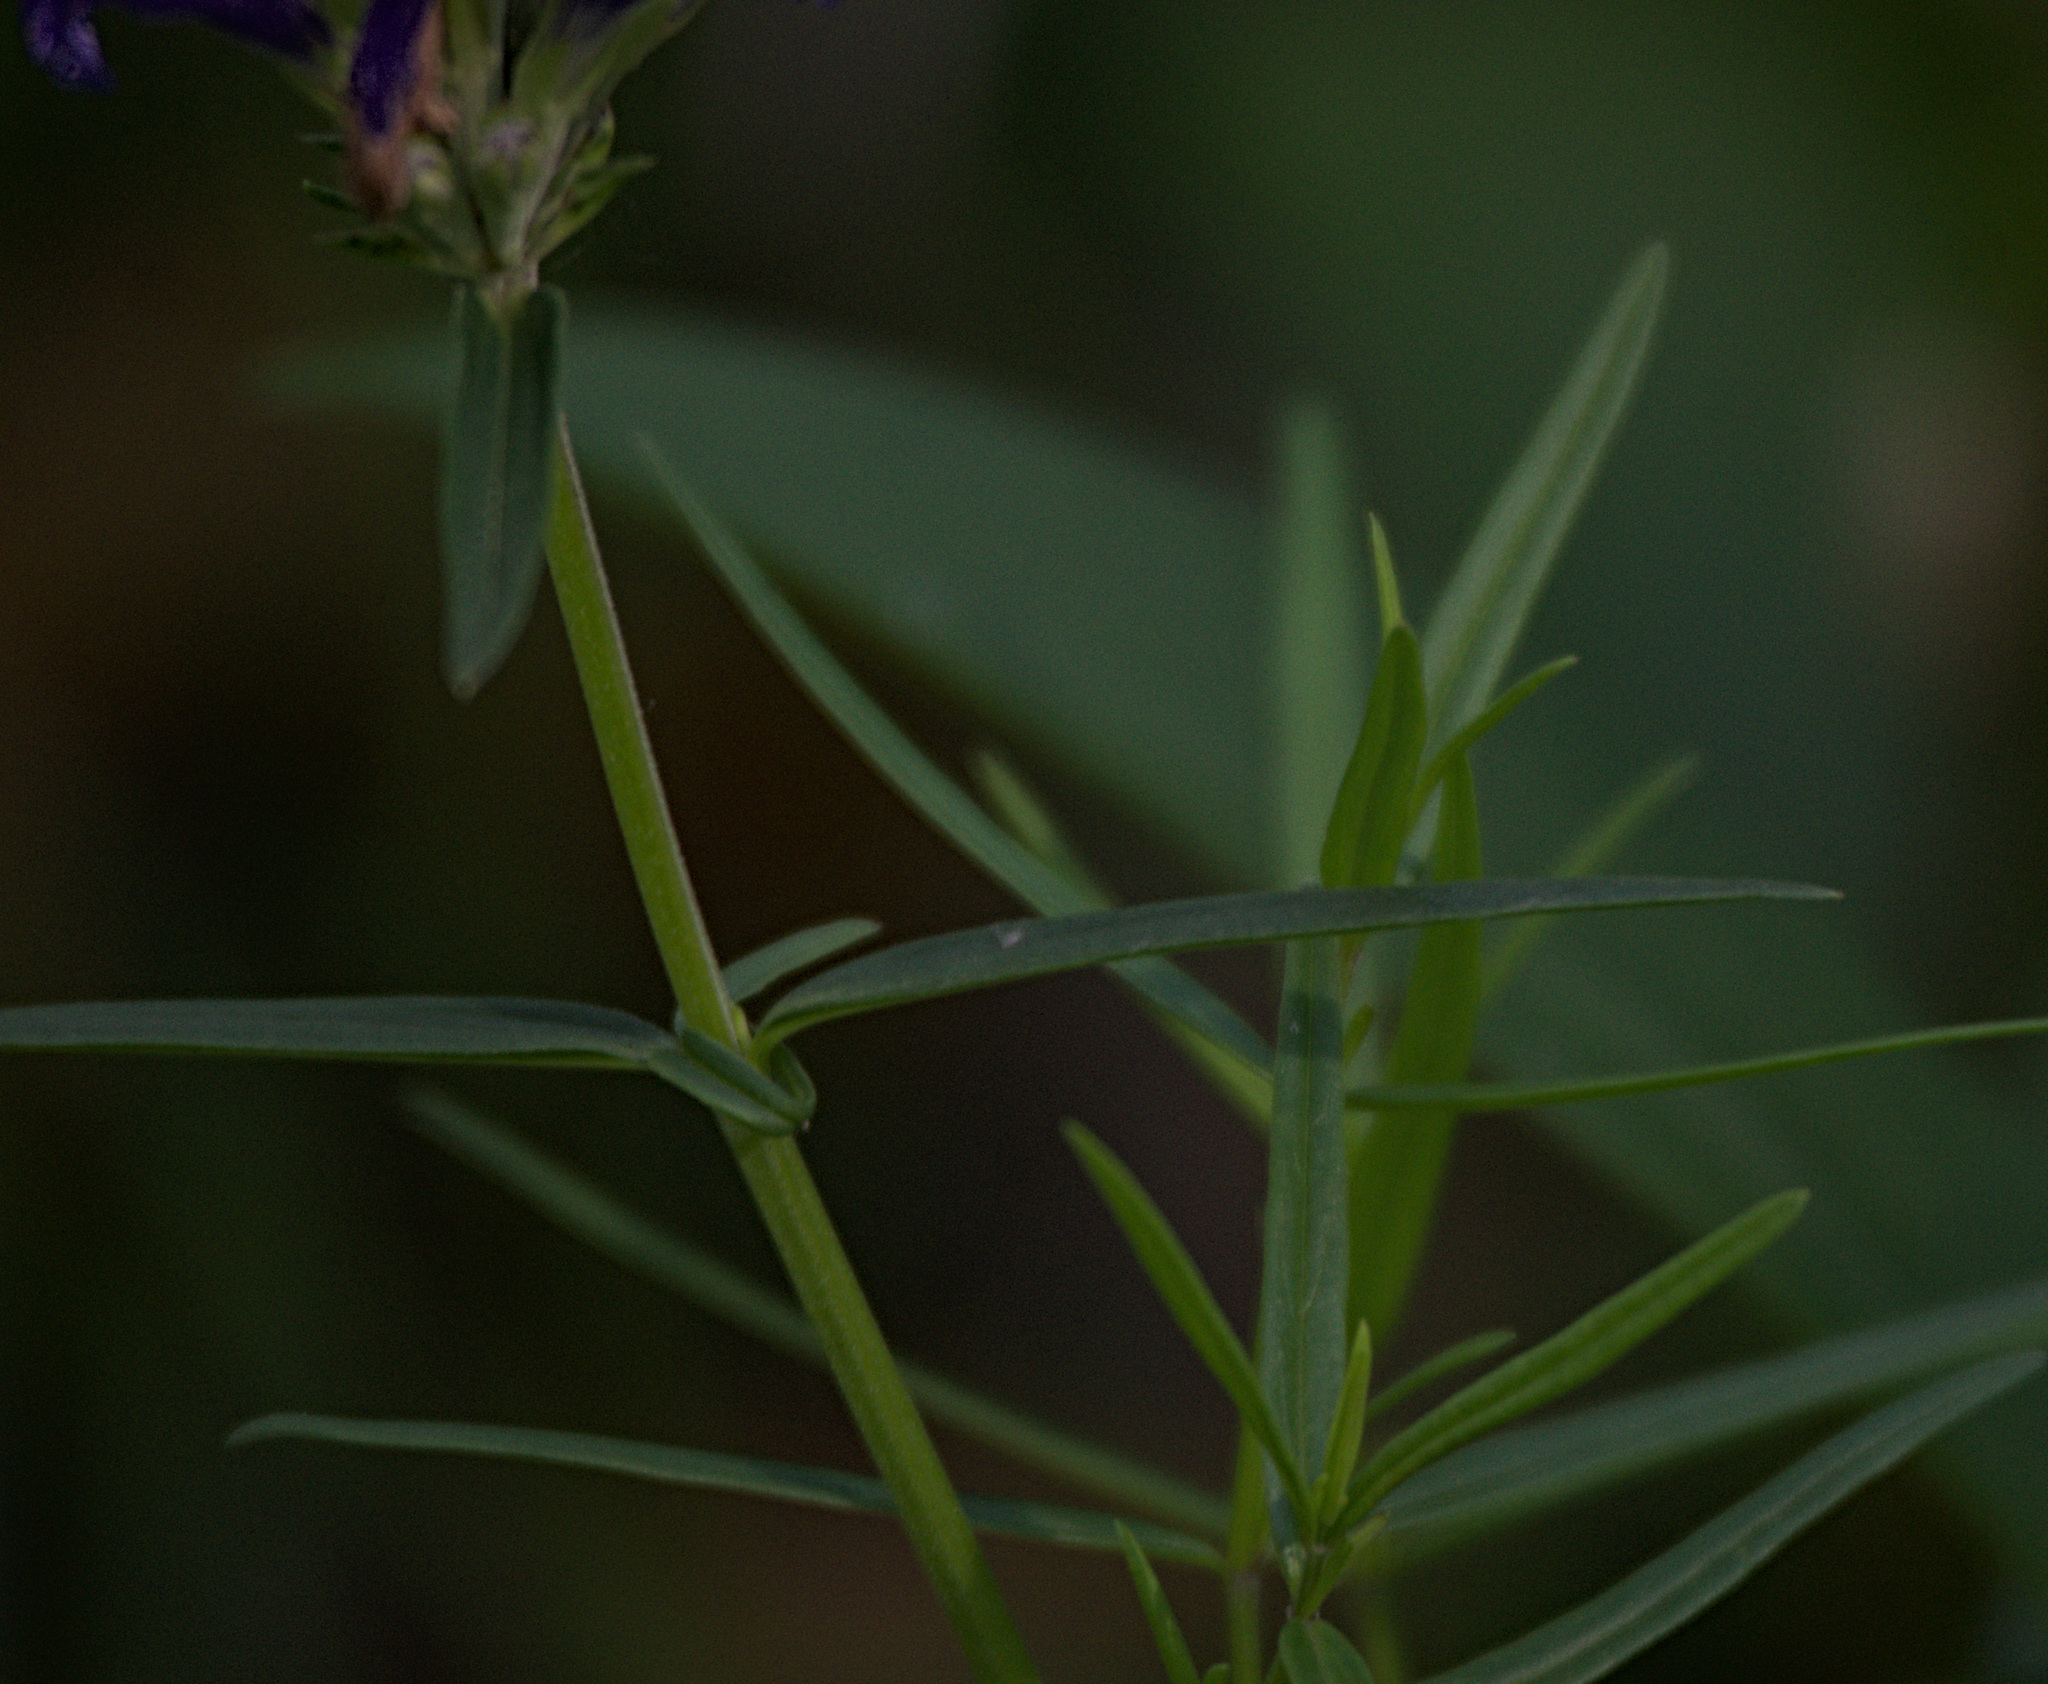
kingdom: Plantae
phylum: Tracheophyta
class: Magnoliopsida
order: Lamiales
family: Lamiaceae
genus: Dracocephalum
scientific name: Dracocephalum ruyschiana
